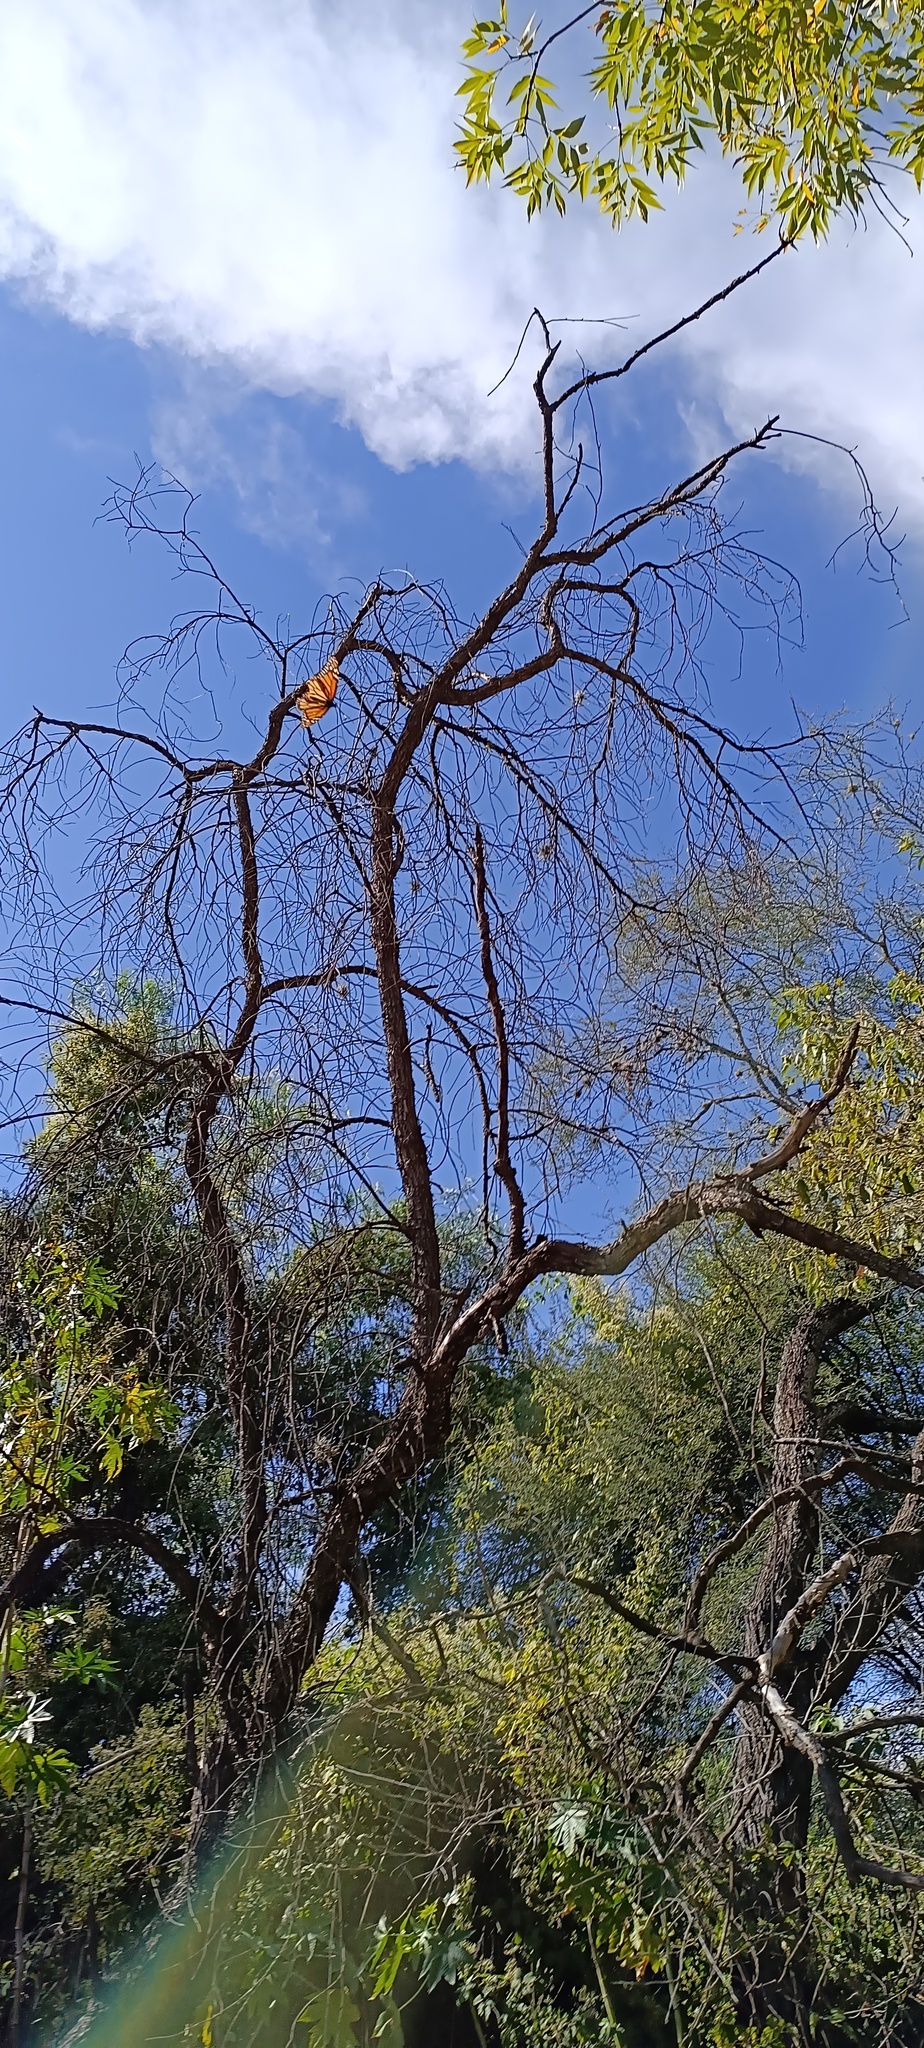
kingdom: Animalia
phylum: Arthropoda
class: Insecta
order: Lepidoptera
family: Nymphalidae
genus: Danaus
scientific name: Danaus plexippus
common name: Monarch
